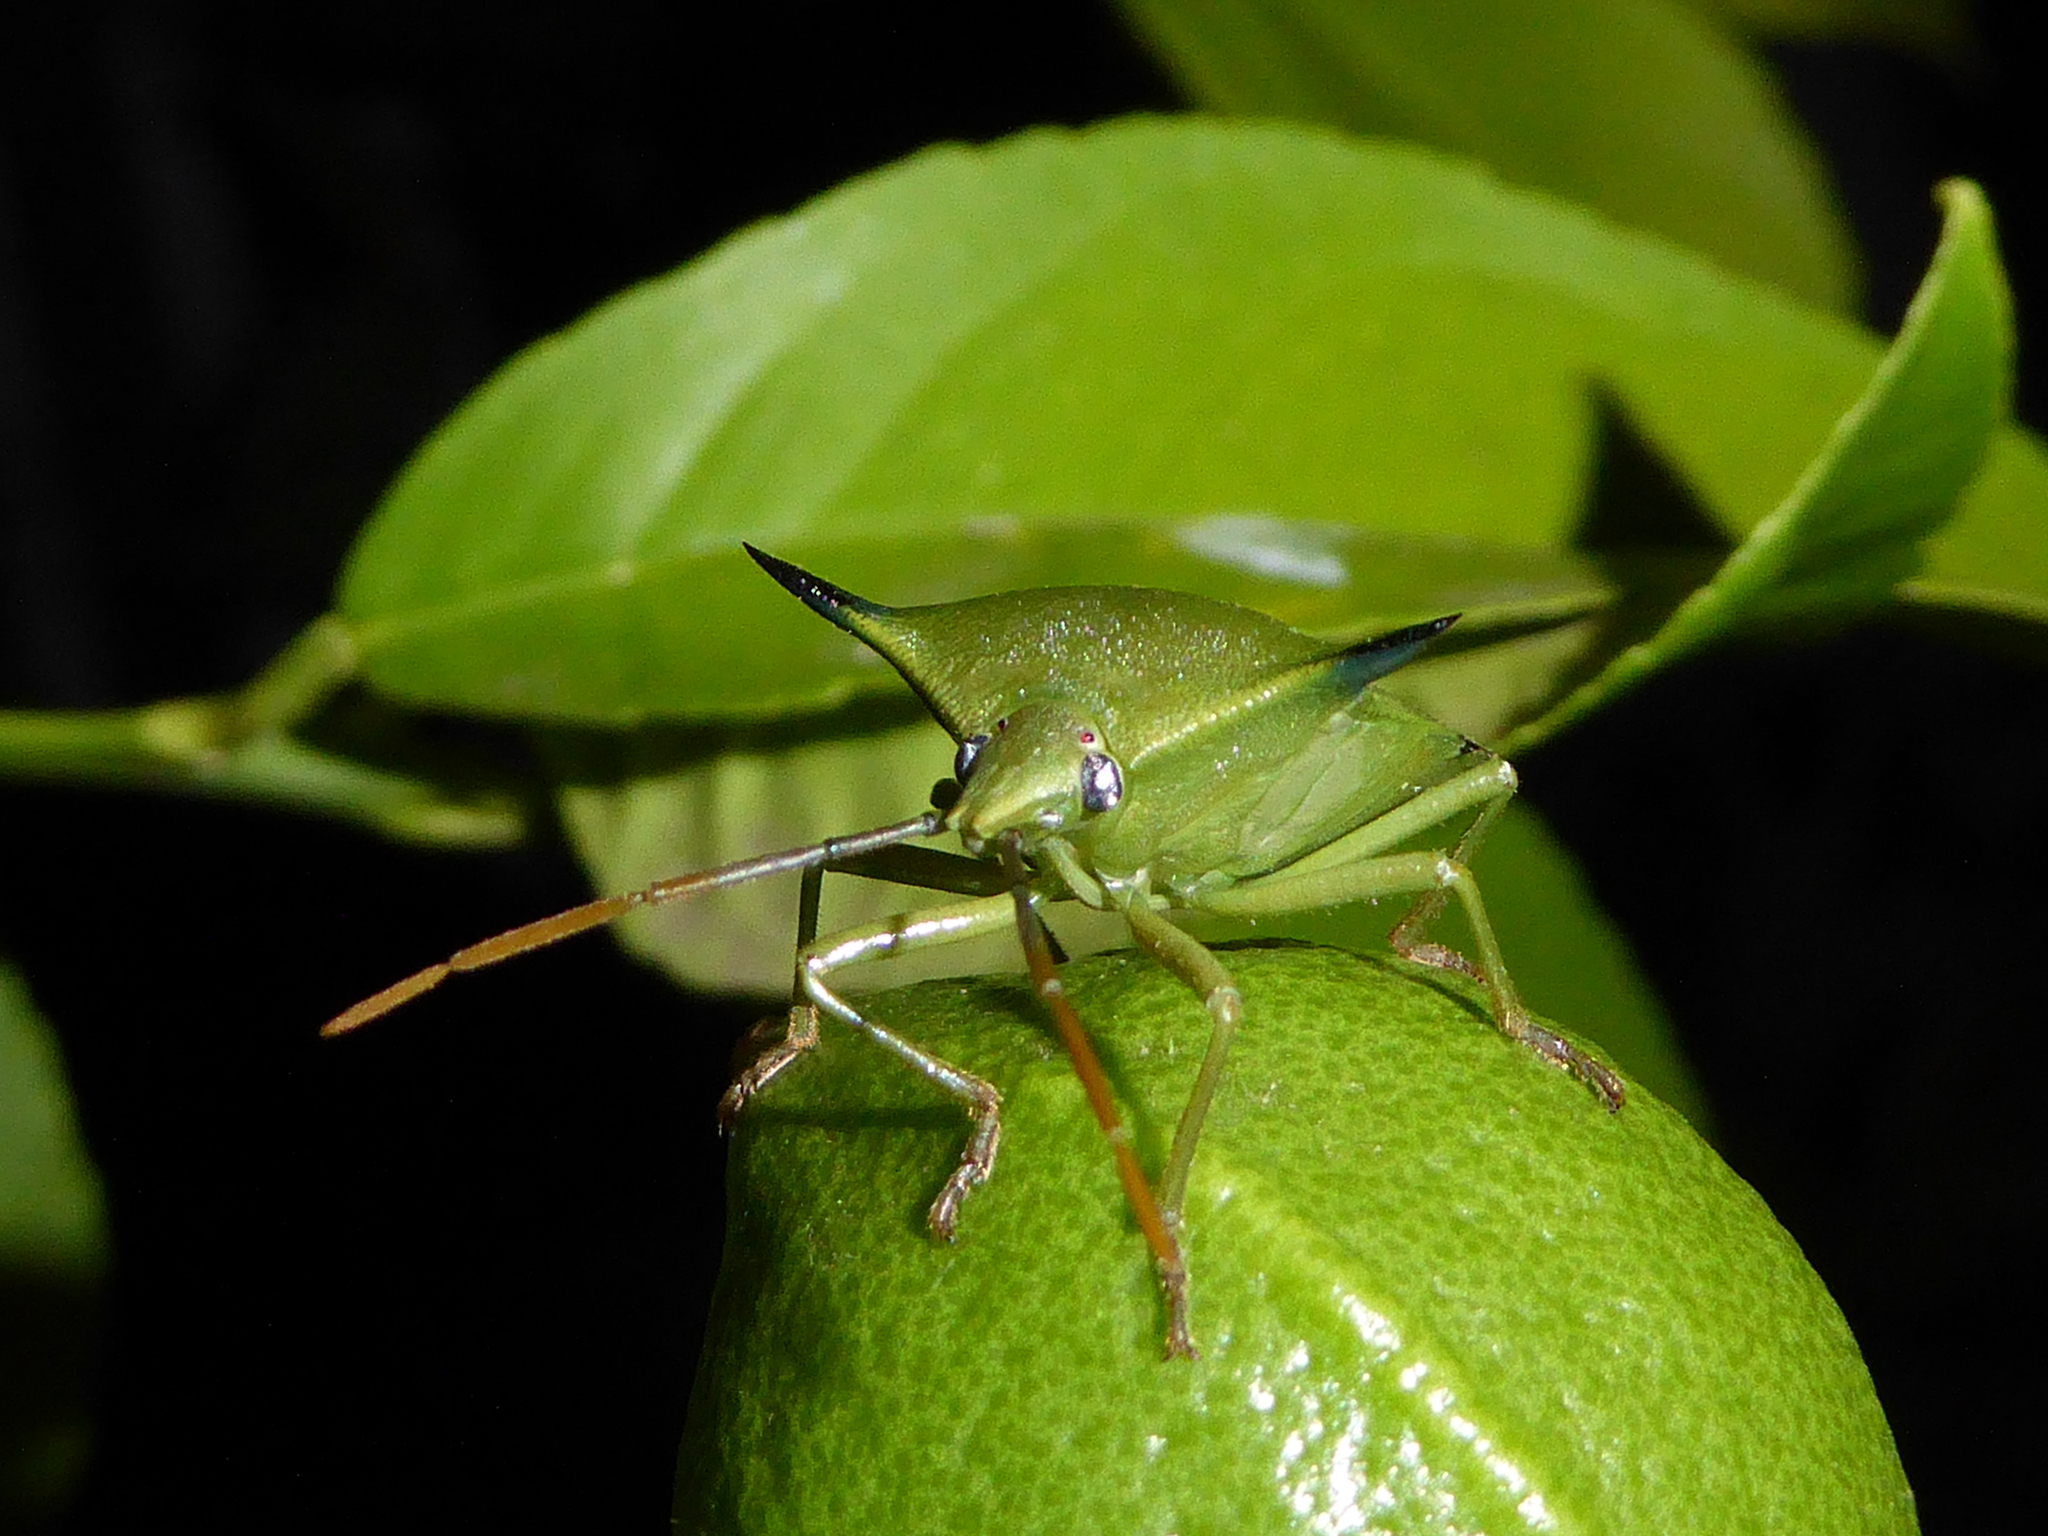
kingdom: Animalia
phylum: Arthropoda
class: Insecta
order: Hemiptera
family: Pentatomidae
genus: Biprorulus
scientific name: Biprorulus
